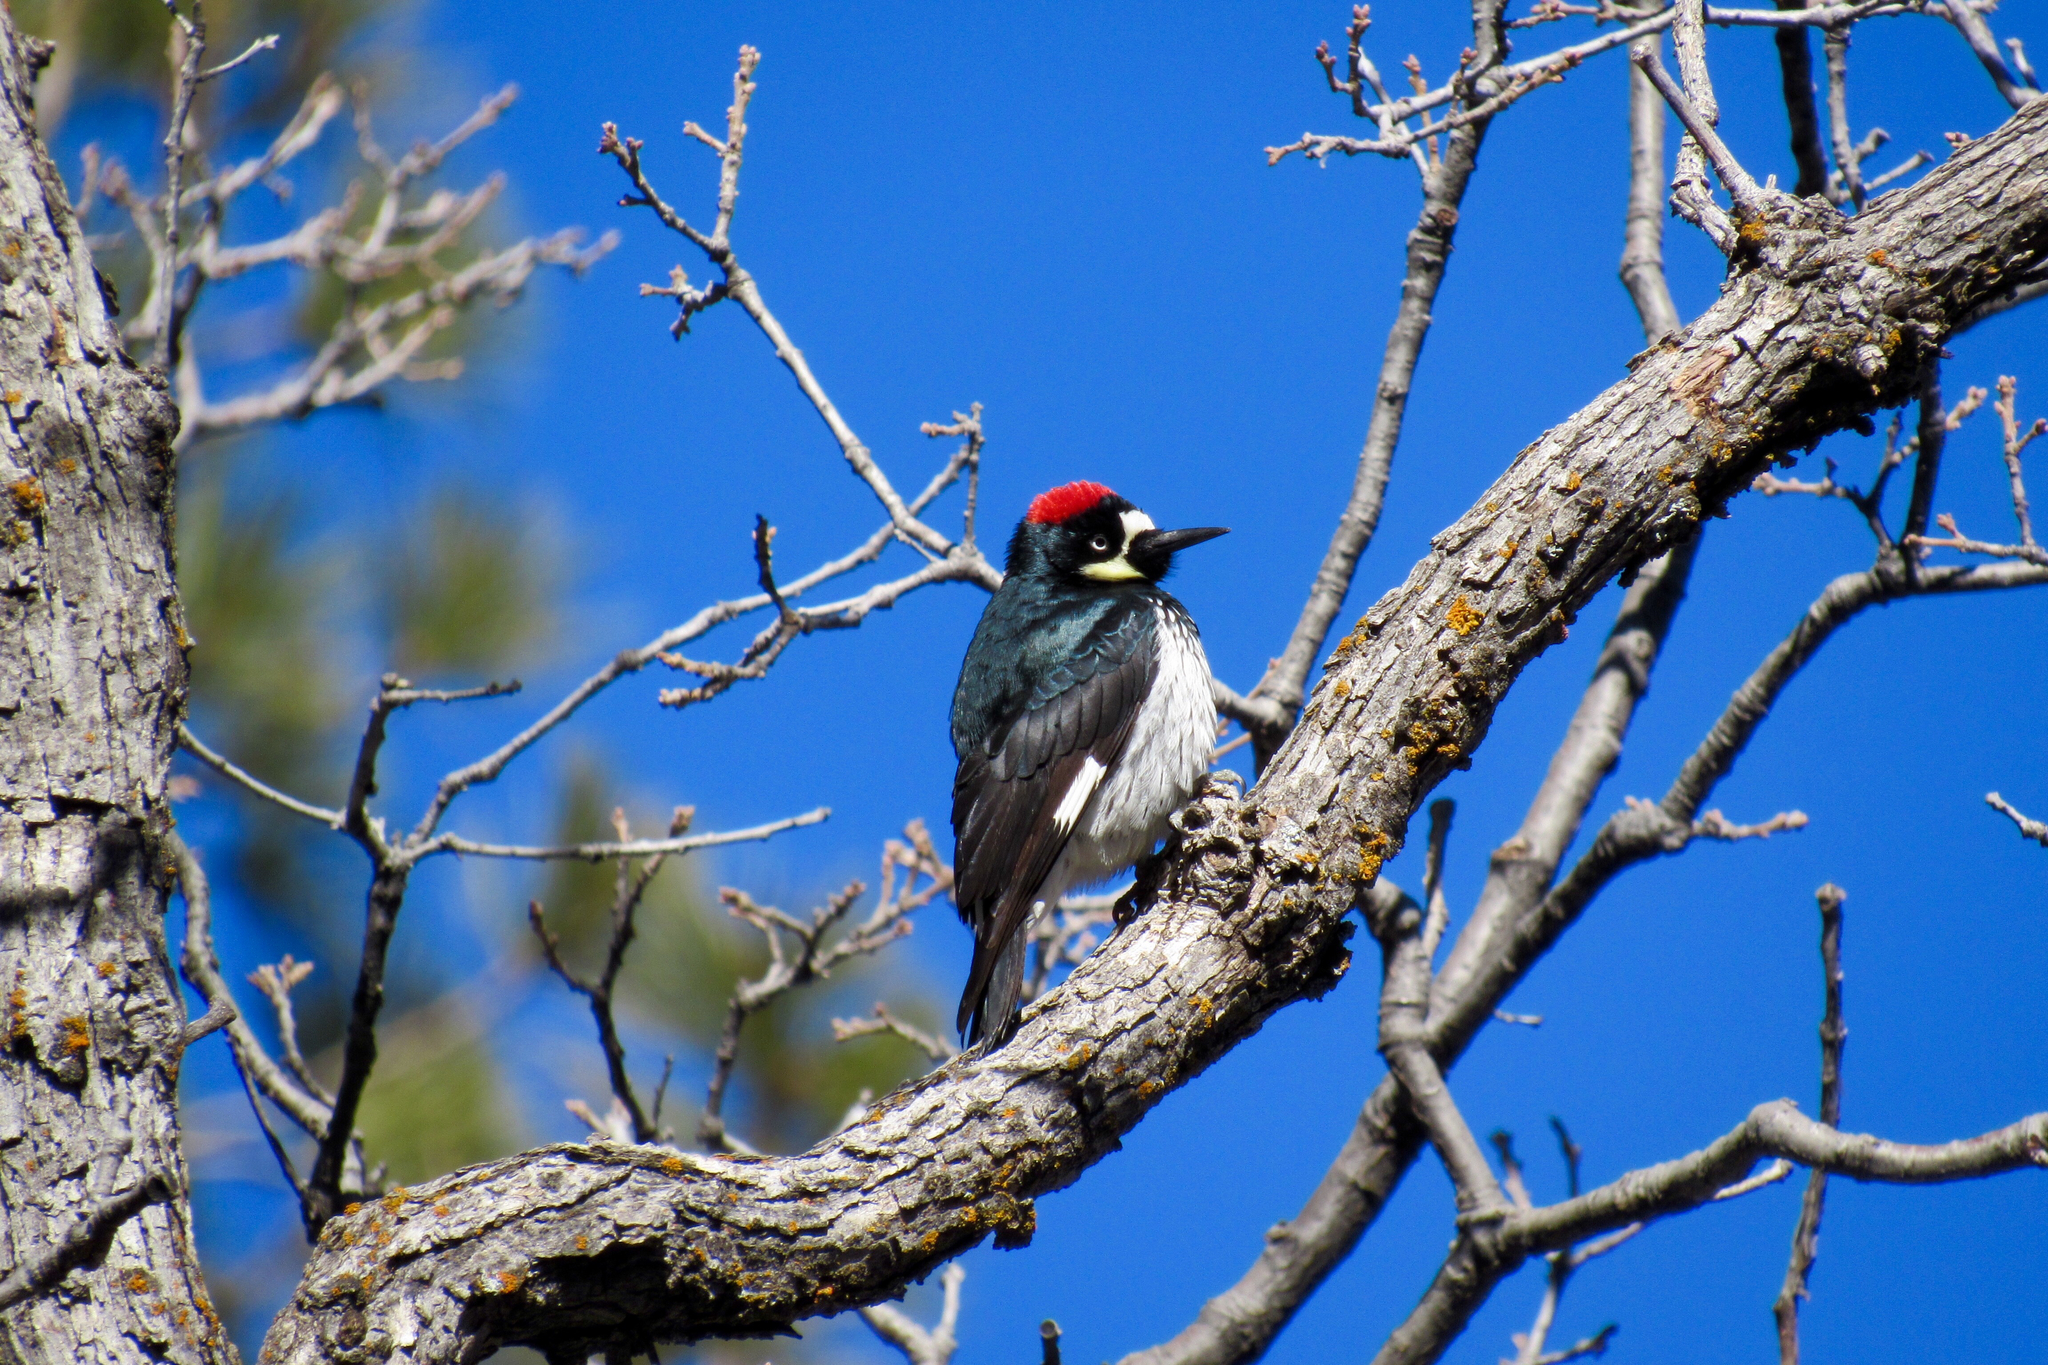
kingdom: Animalia
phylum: Chordata
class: Aves
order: Piciformes
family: Picidae
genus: Melanerpes
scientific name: Melanerpes formicivorus
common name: Acorn woodpecker
